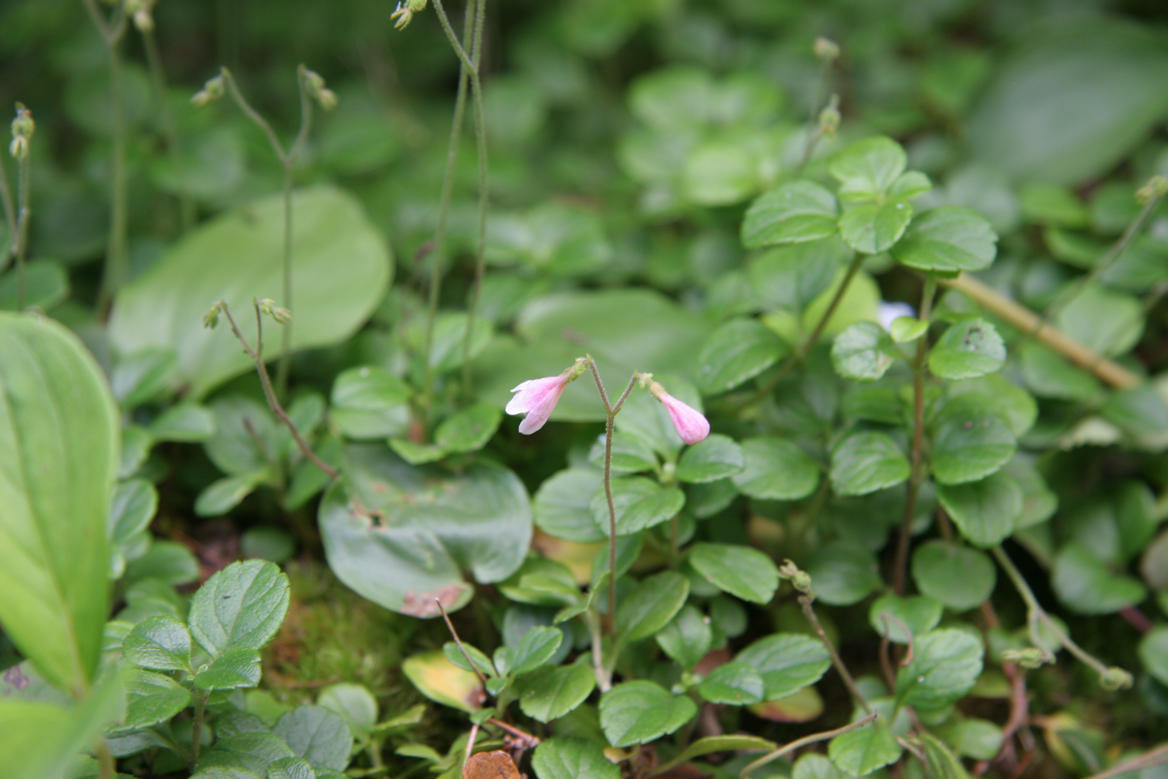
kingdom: Plantae
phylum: Tracheophyta
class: Magnoliopsida
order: Dipsacales
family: Caprifoliaceae
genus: Linnaea
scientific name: Linnaea borealis
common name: Twinflower
